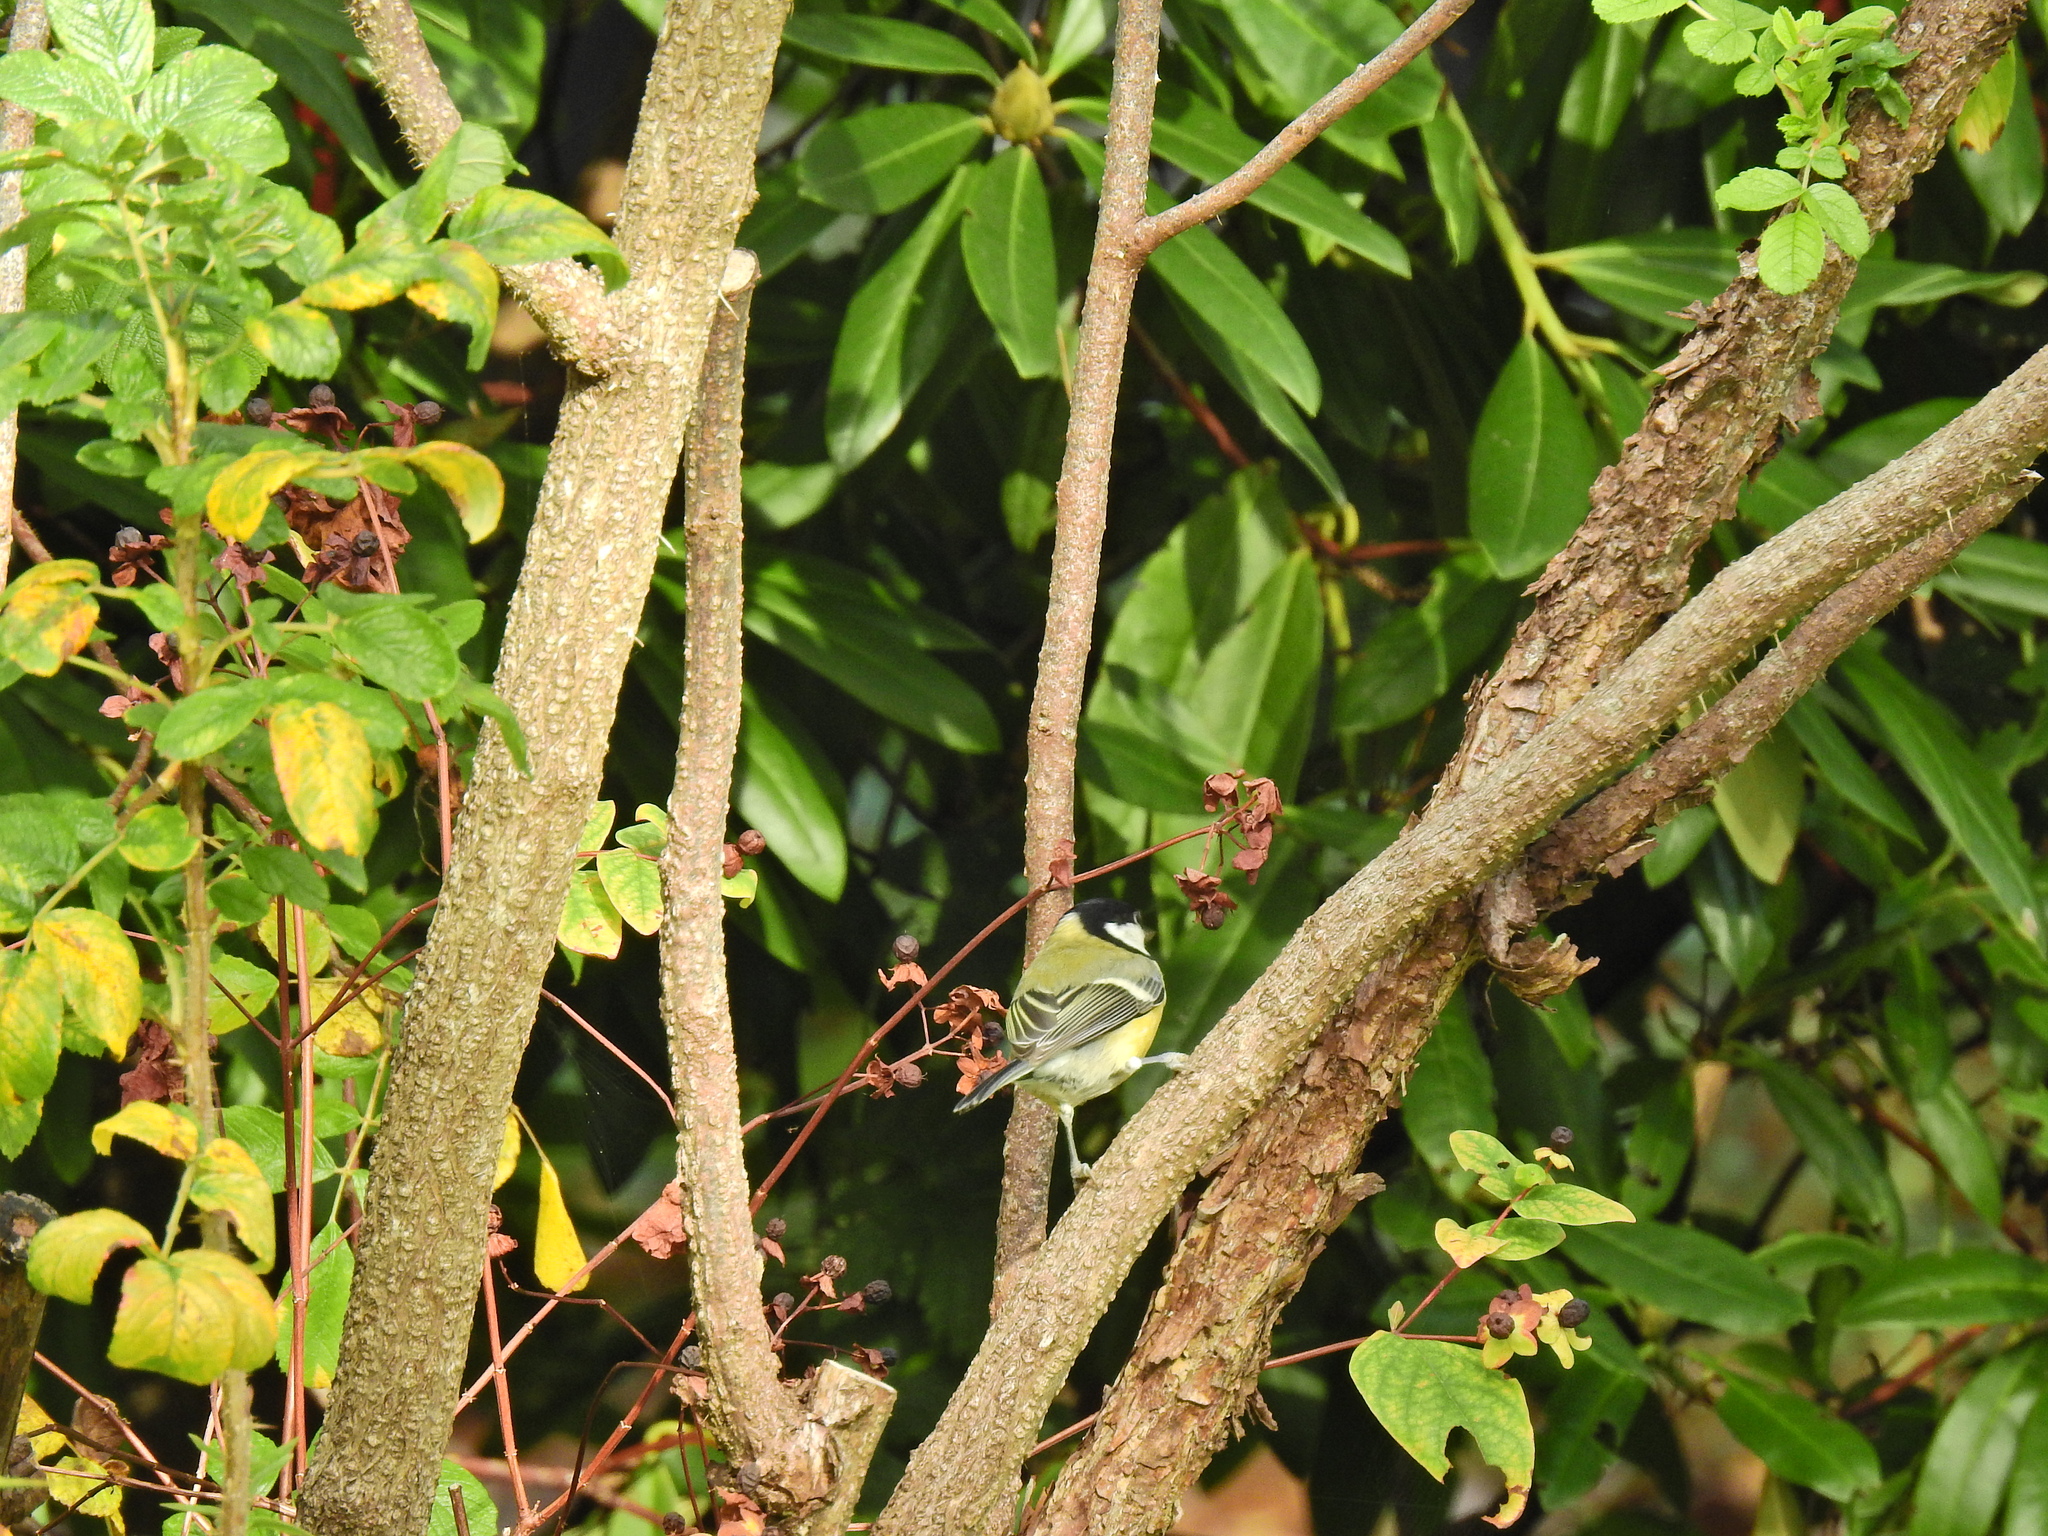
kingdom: Animalia
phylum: Chordata
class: Aves
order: Passeriformes
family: Paridae
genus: Parus
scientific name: Parus major
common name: Great tit
